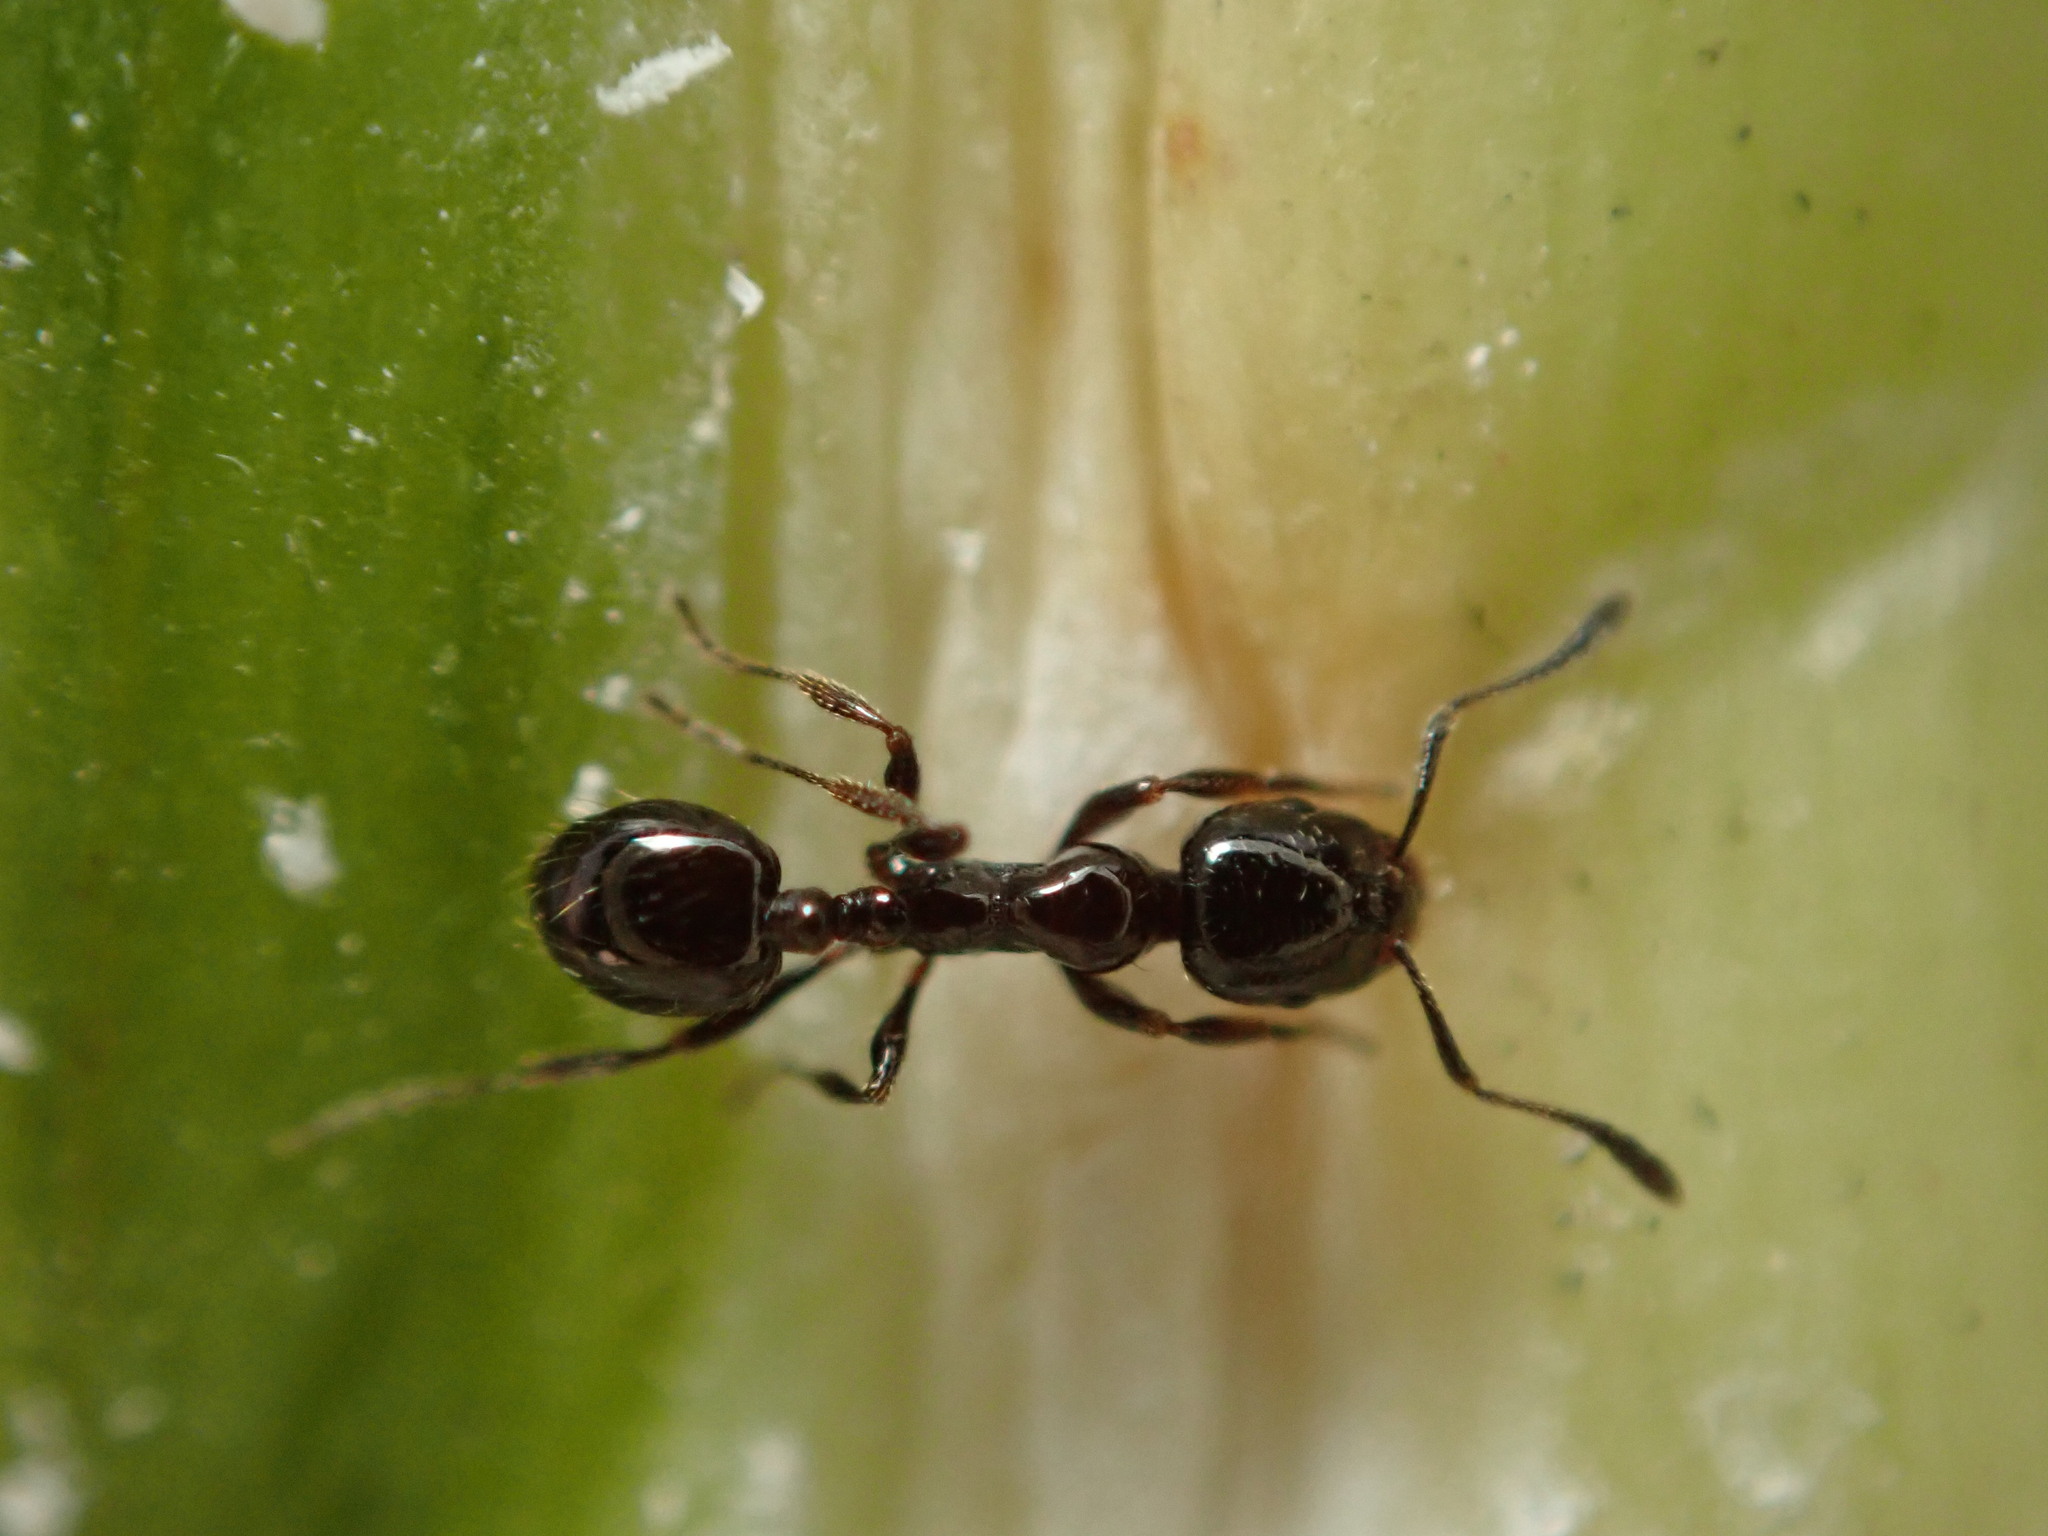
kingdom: Animalia
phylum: Arthropoda
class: Insecta
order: Hymenoptera
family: Formicidae
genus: Monomorium
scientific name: Monomorium antarcticum
